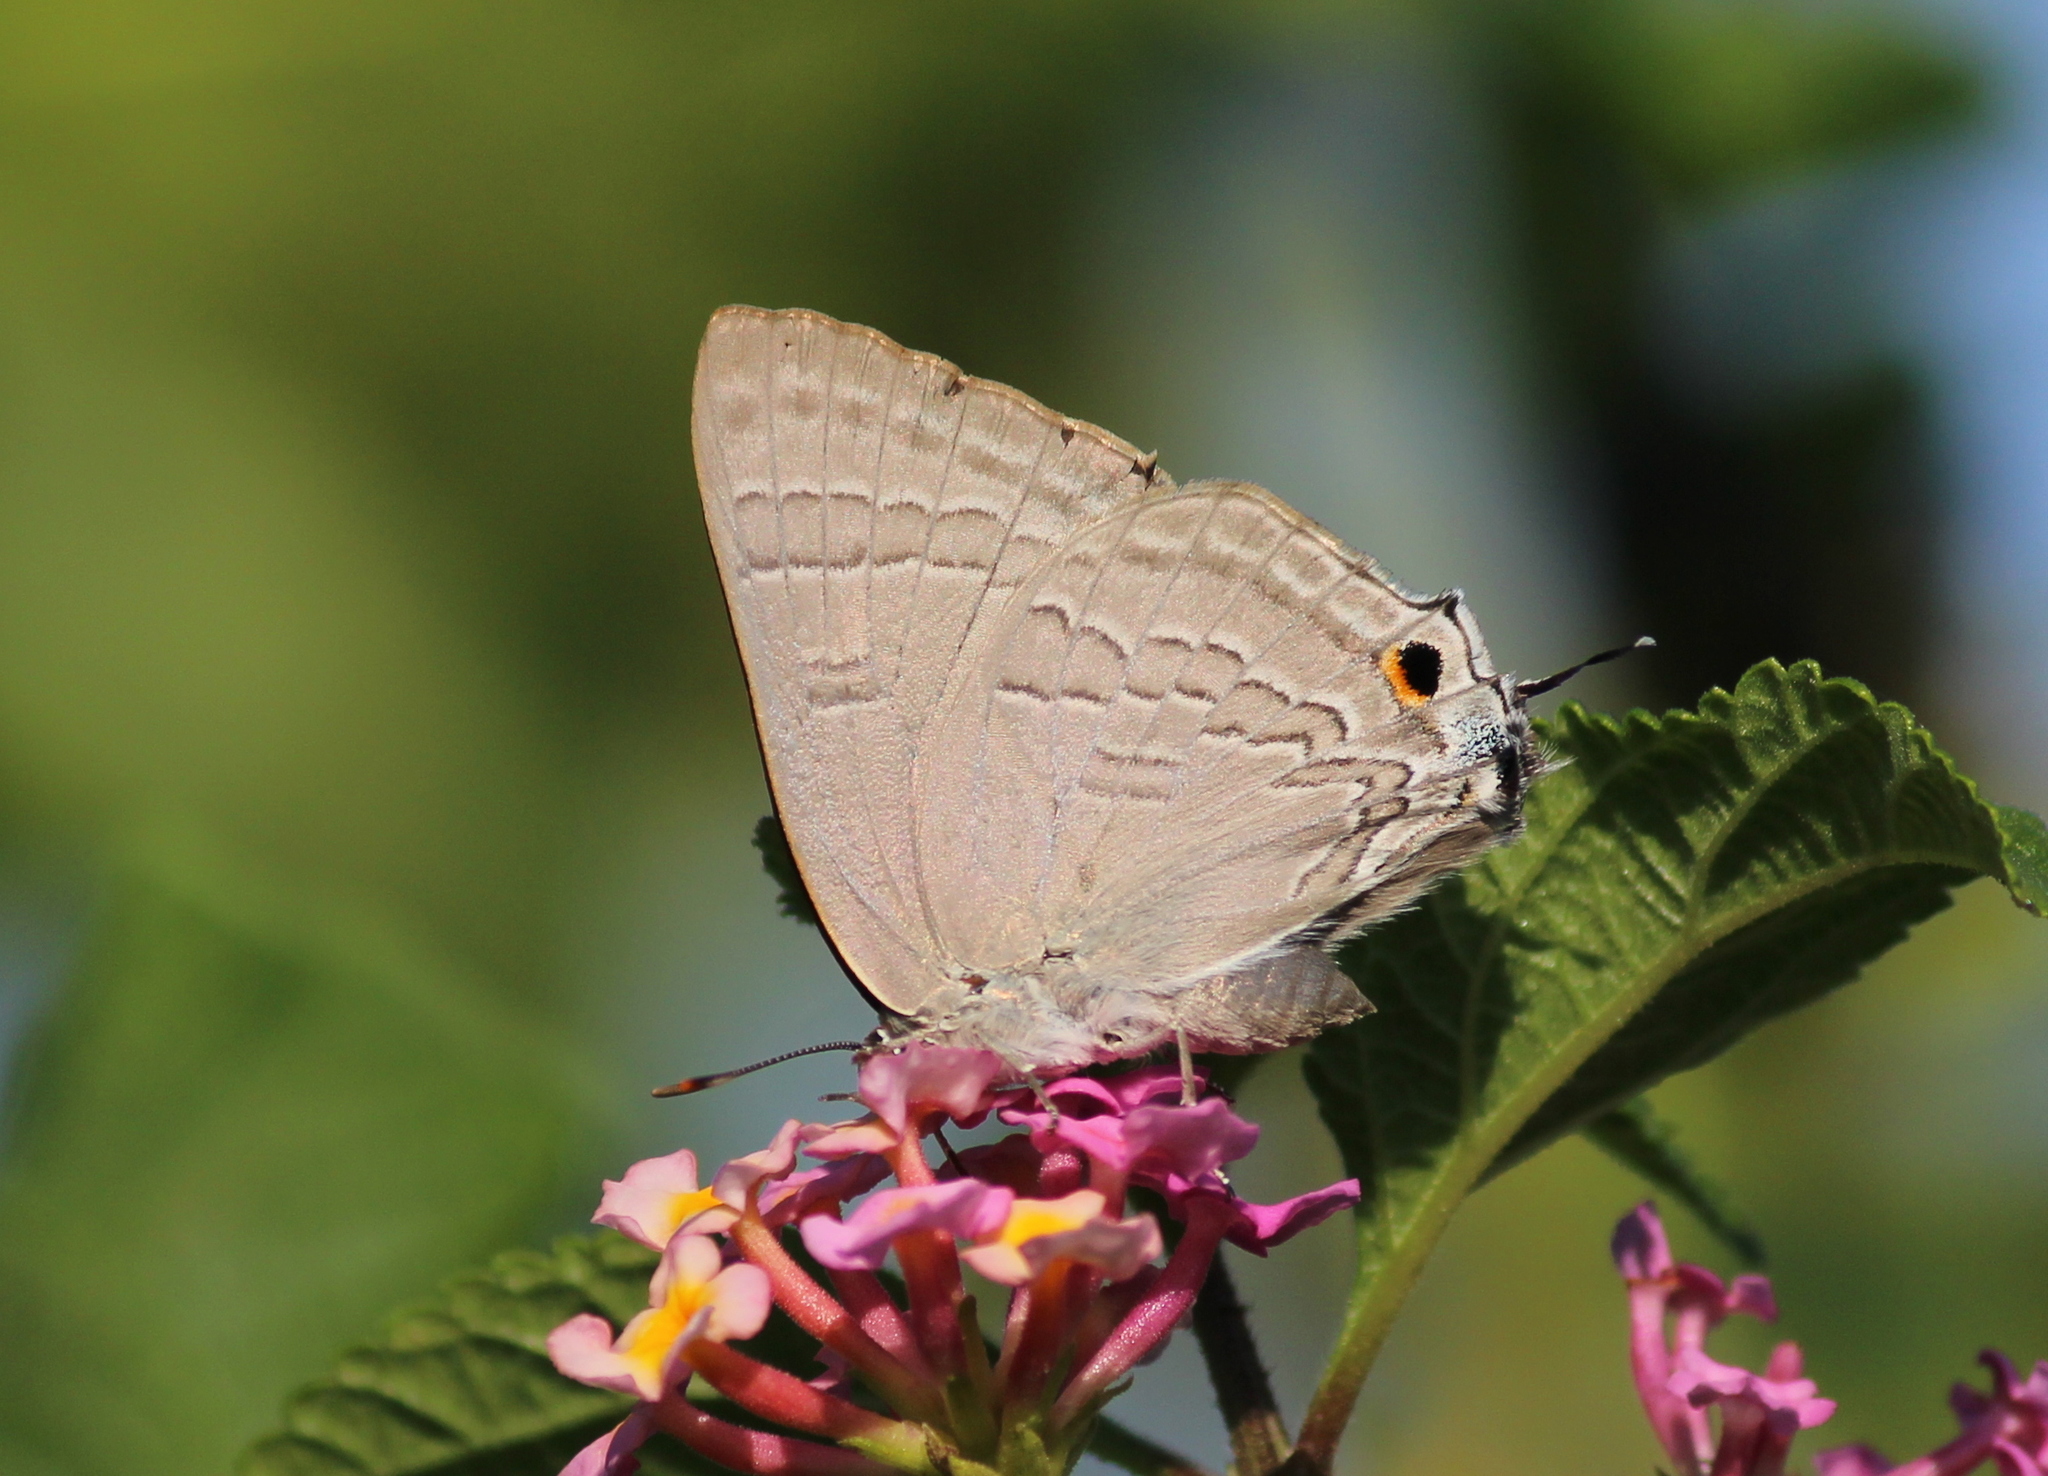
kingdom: Animalia
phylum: Arthropoda
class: Insecta
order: Lepidoptera
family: Lycaenidae
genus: Deudorix
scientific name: Deudorix
